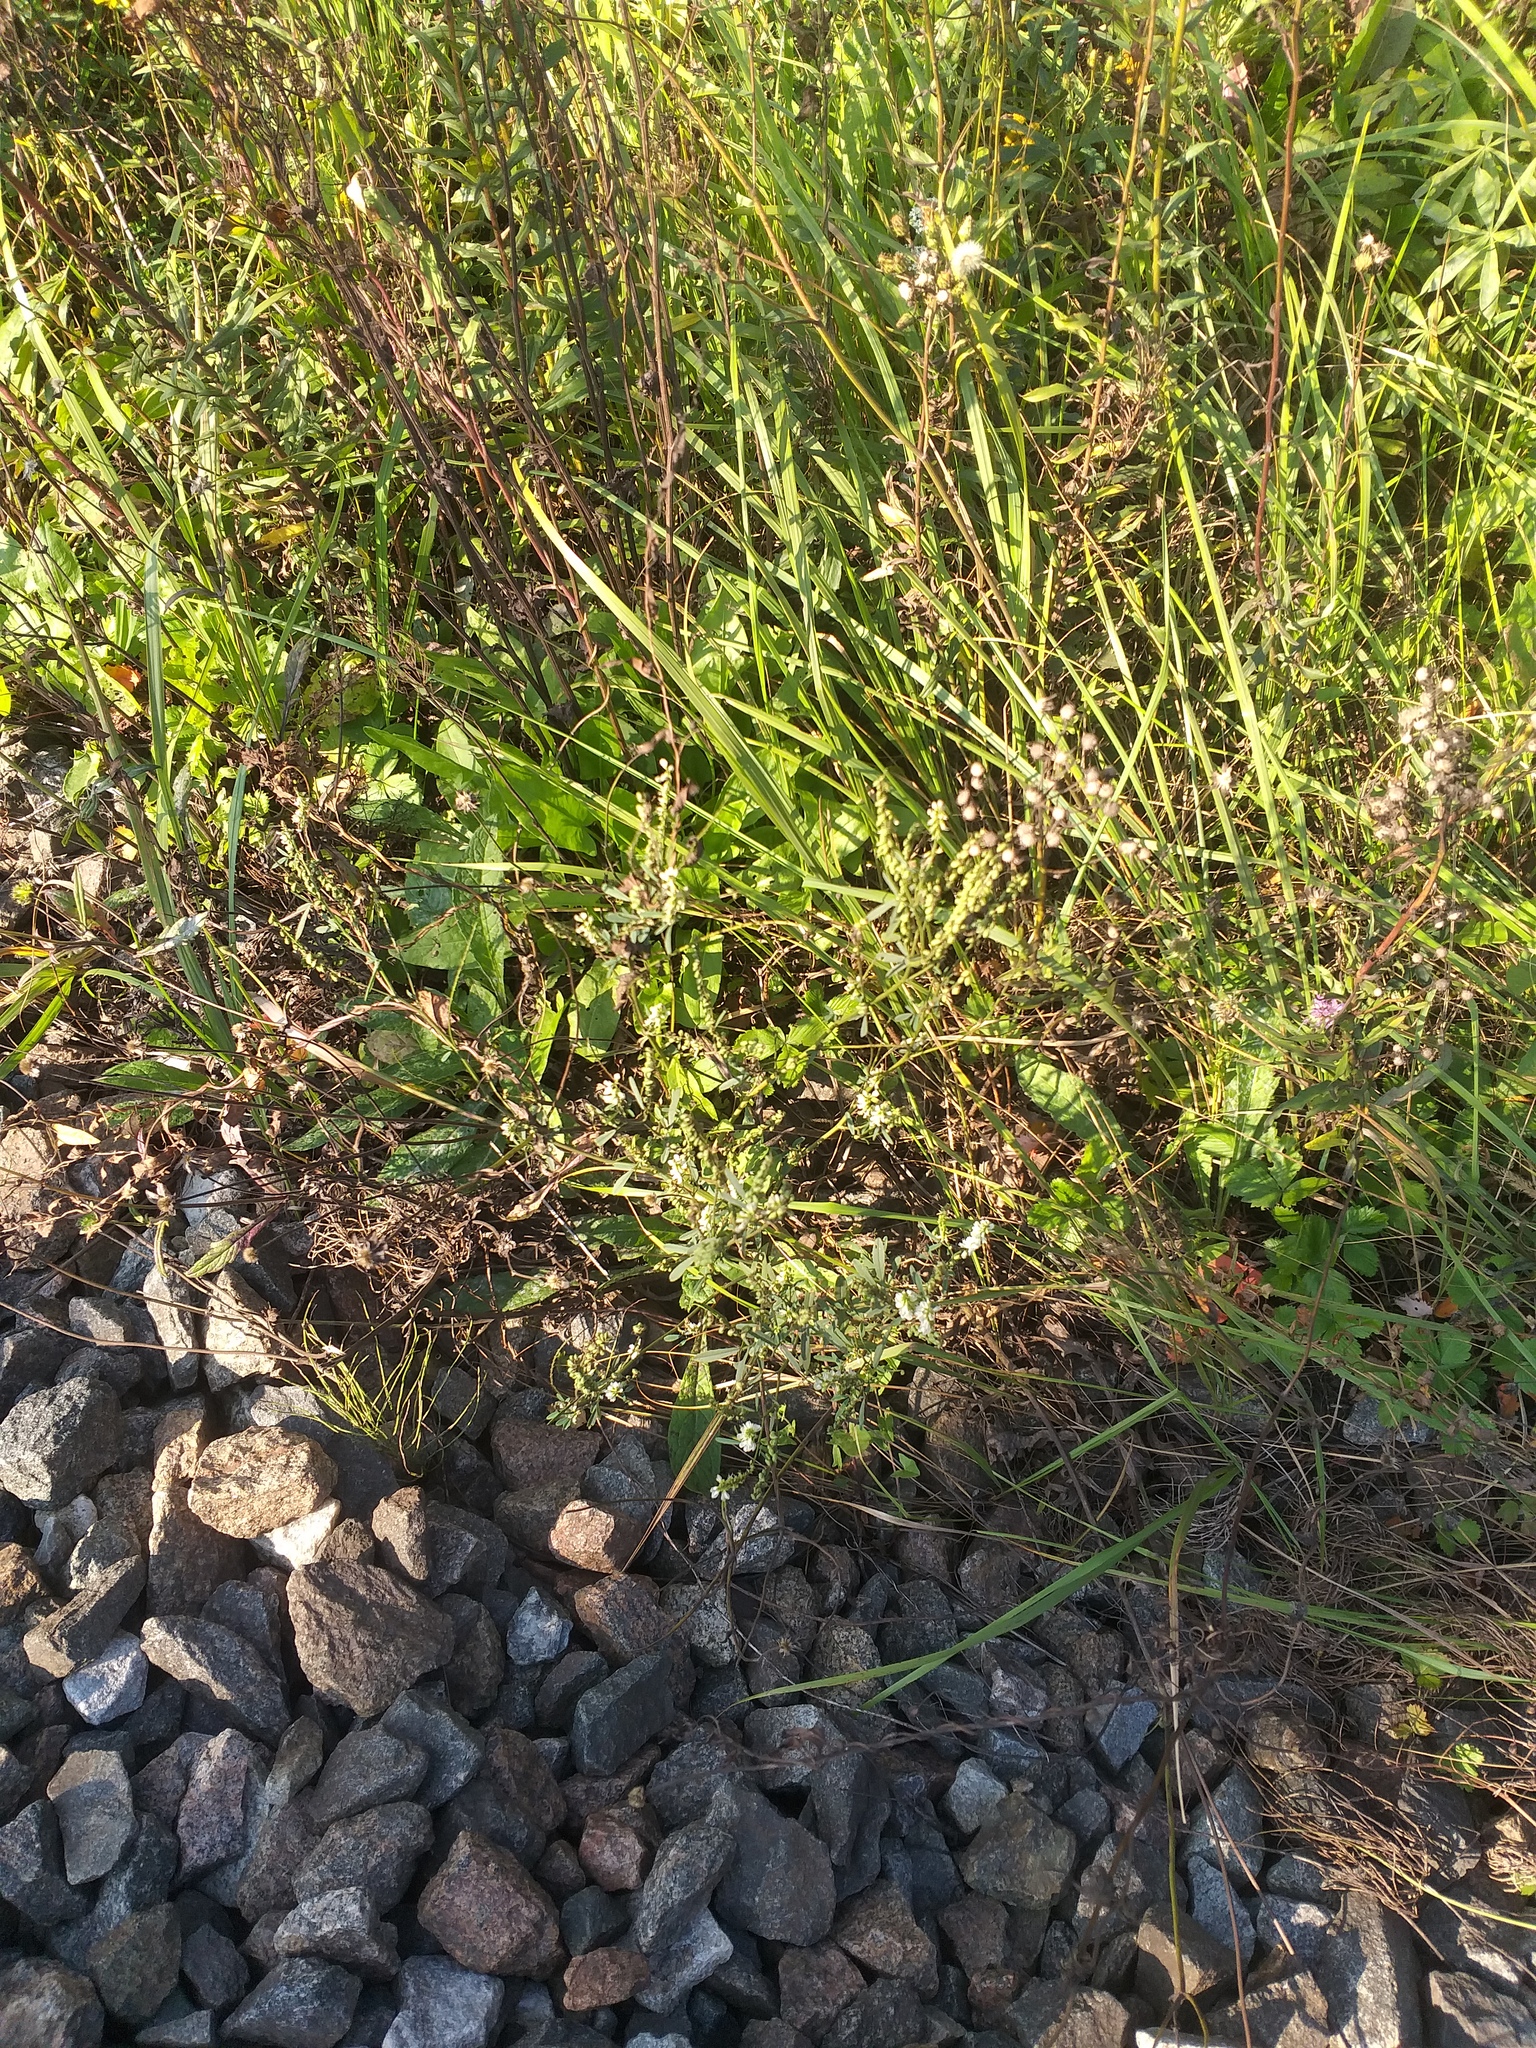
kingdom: Plantae
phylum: Tracheophyta
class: Magnoliopsida
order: Fabales
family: Fabaceae
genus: Melilotus
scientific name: Melilotus albus
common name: White melilot
